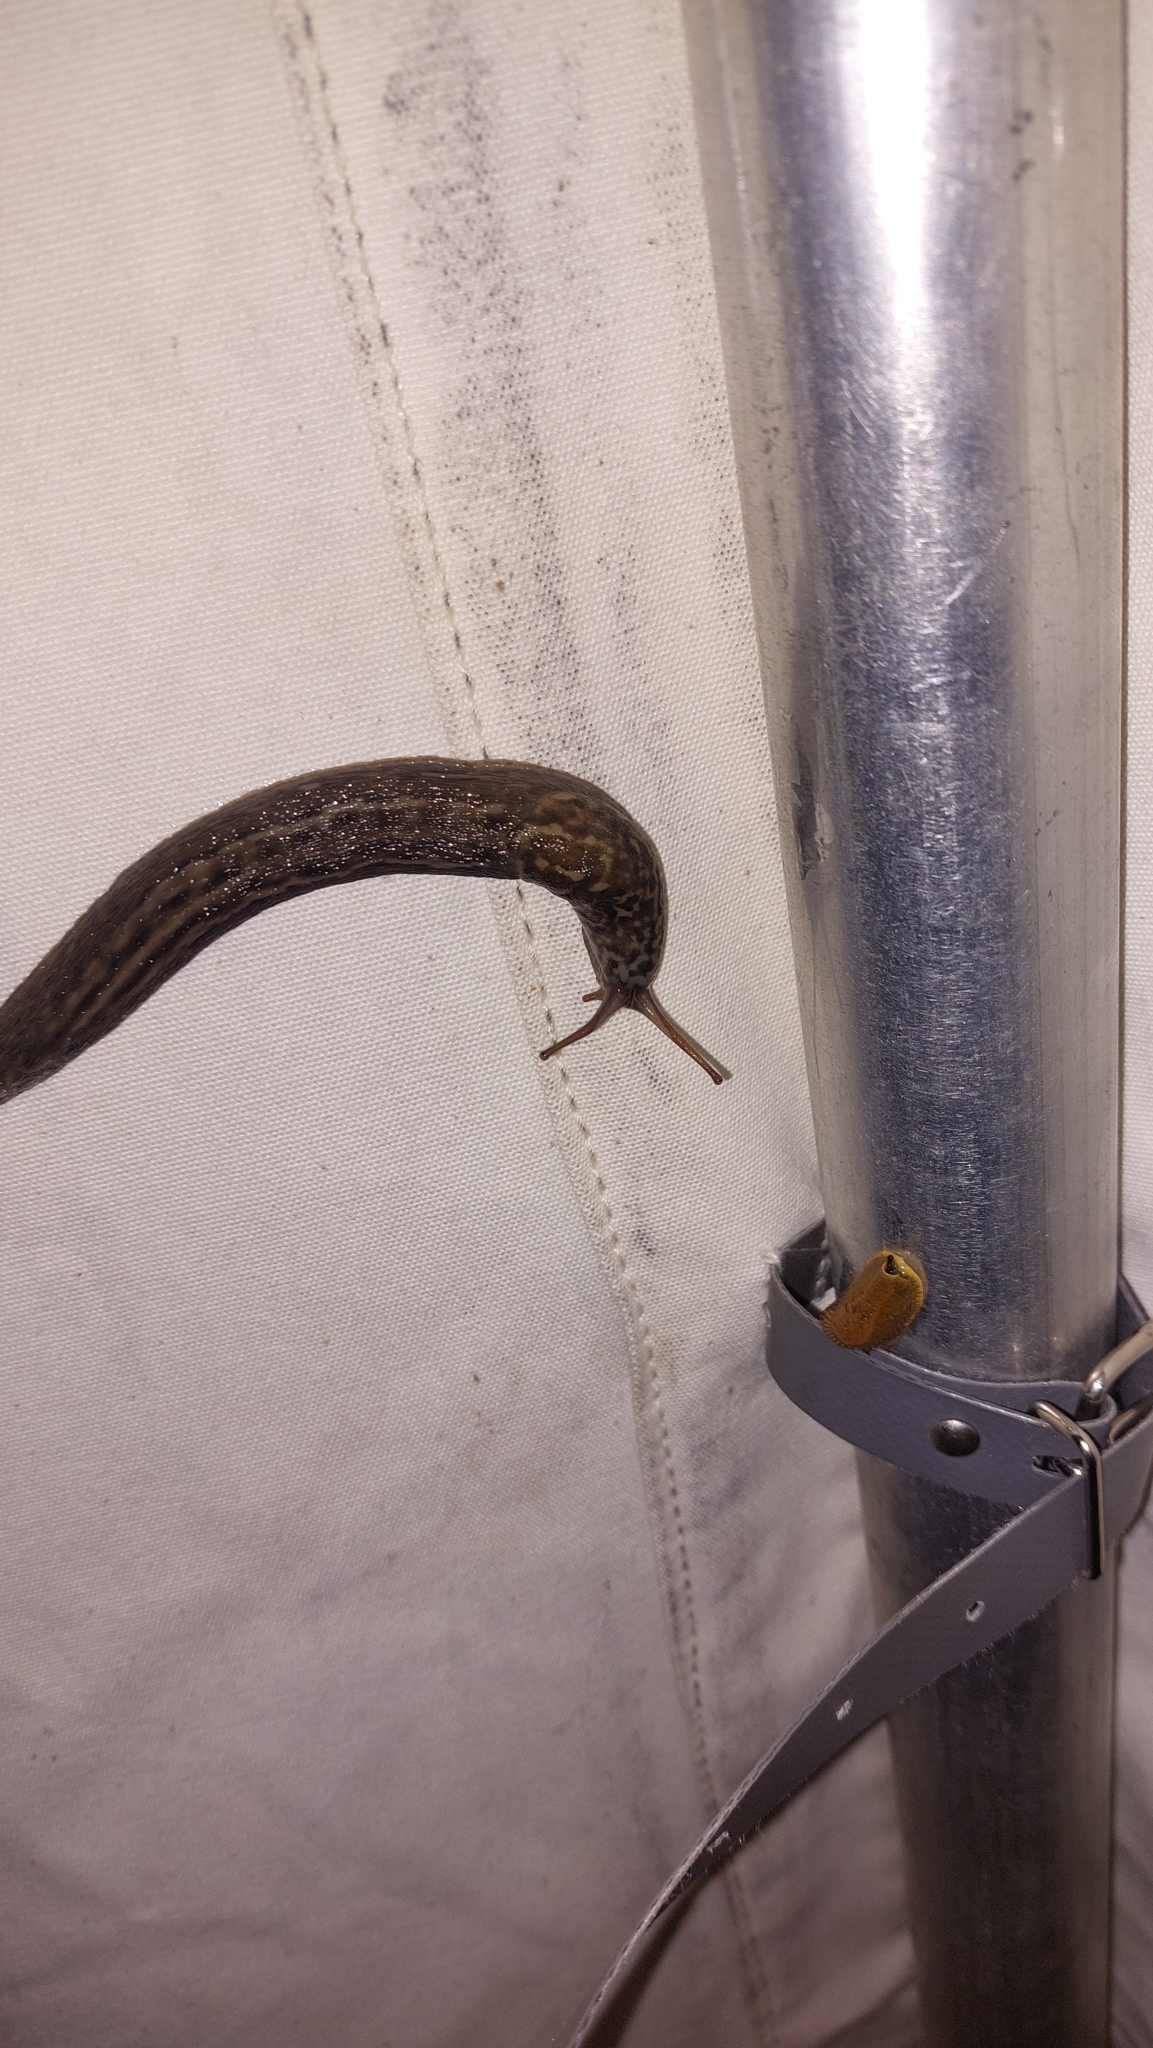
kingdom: Animalia
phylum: Mollusca
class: Gastropoda
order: Stylommatophora
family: Limacidae
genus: Limax
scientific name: Limax maximus
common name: Great grey slug
